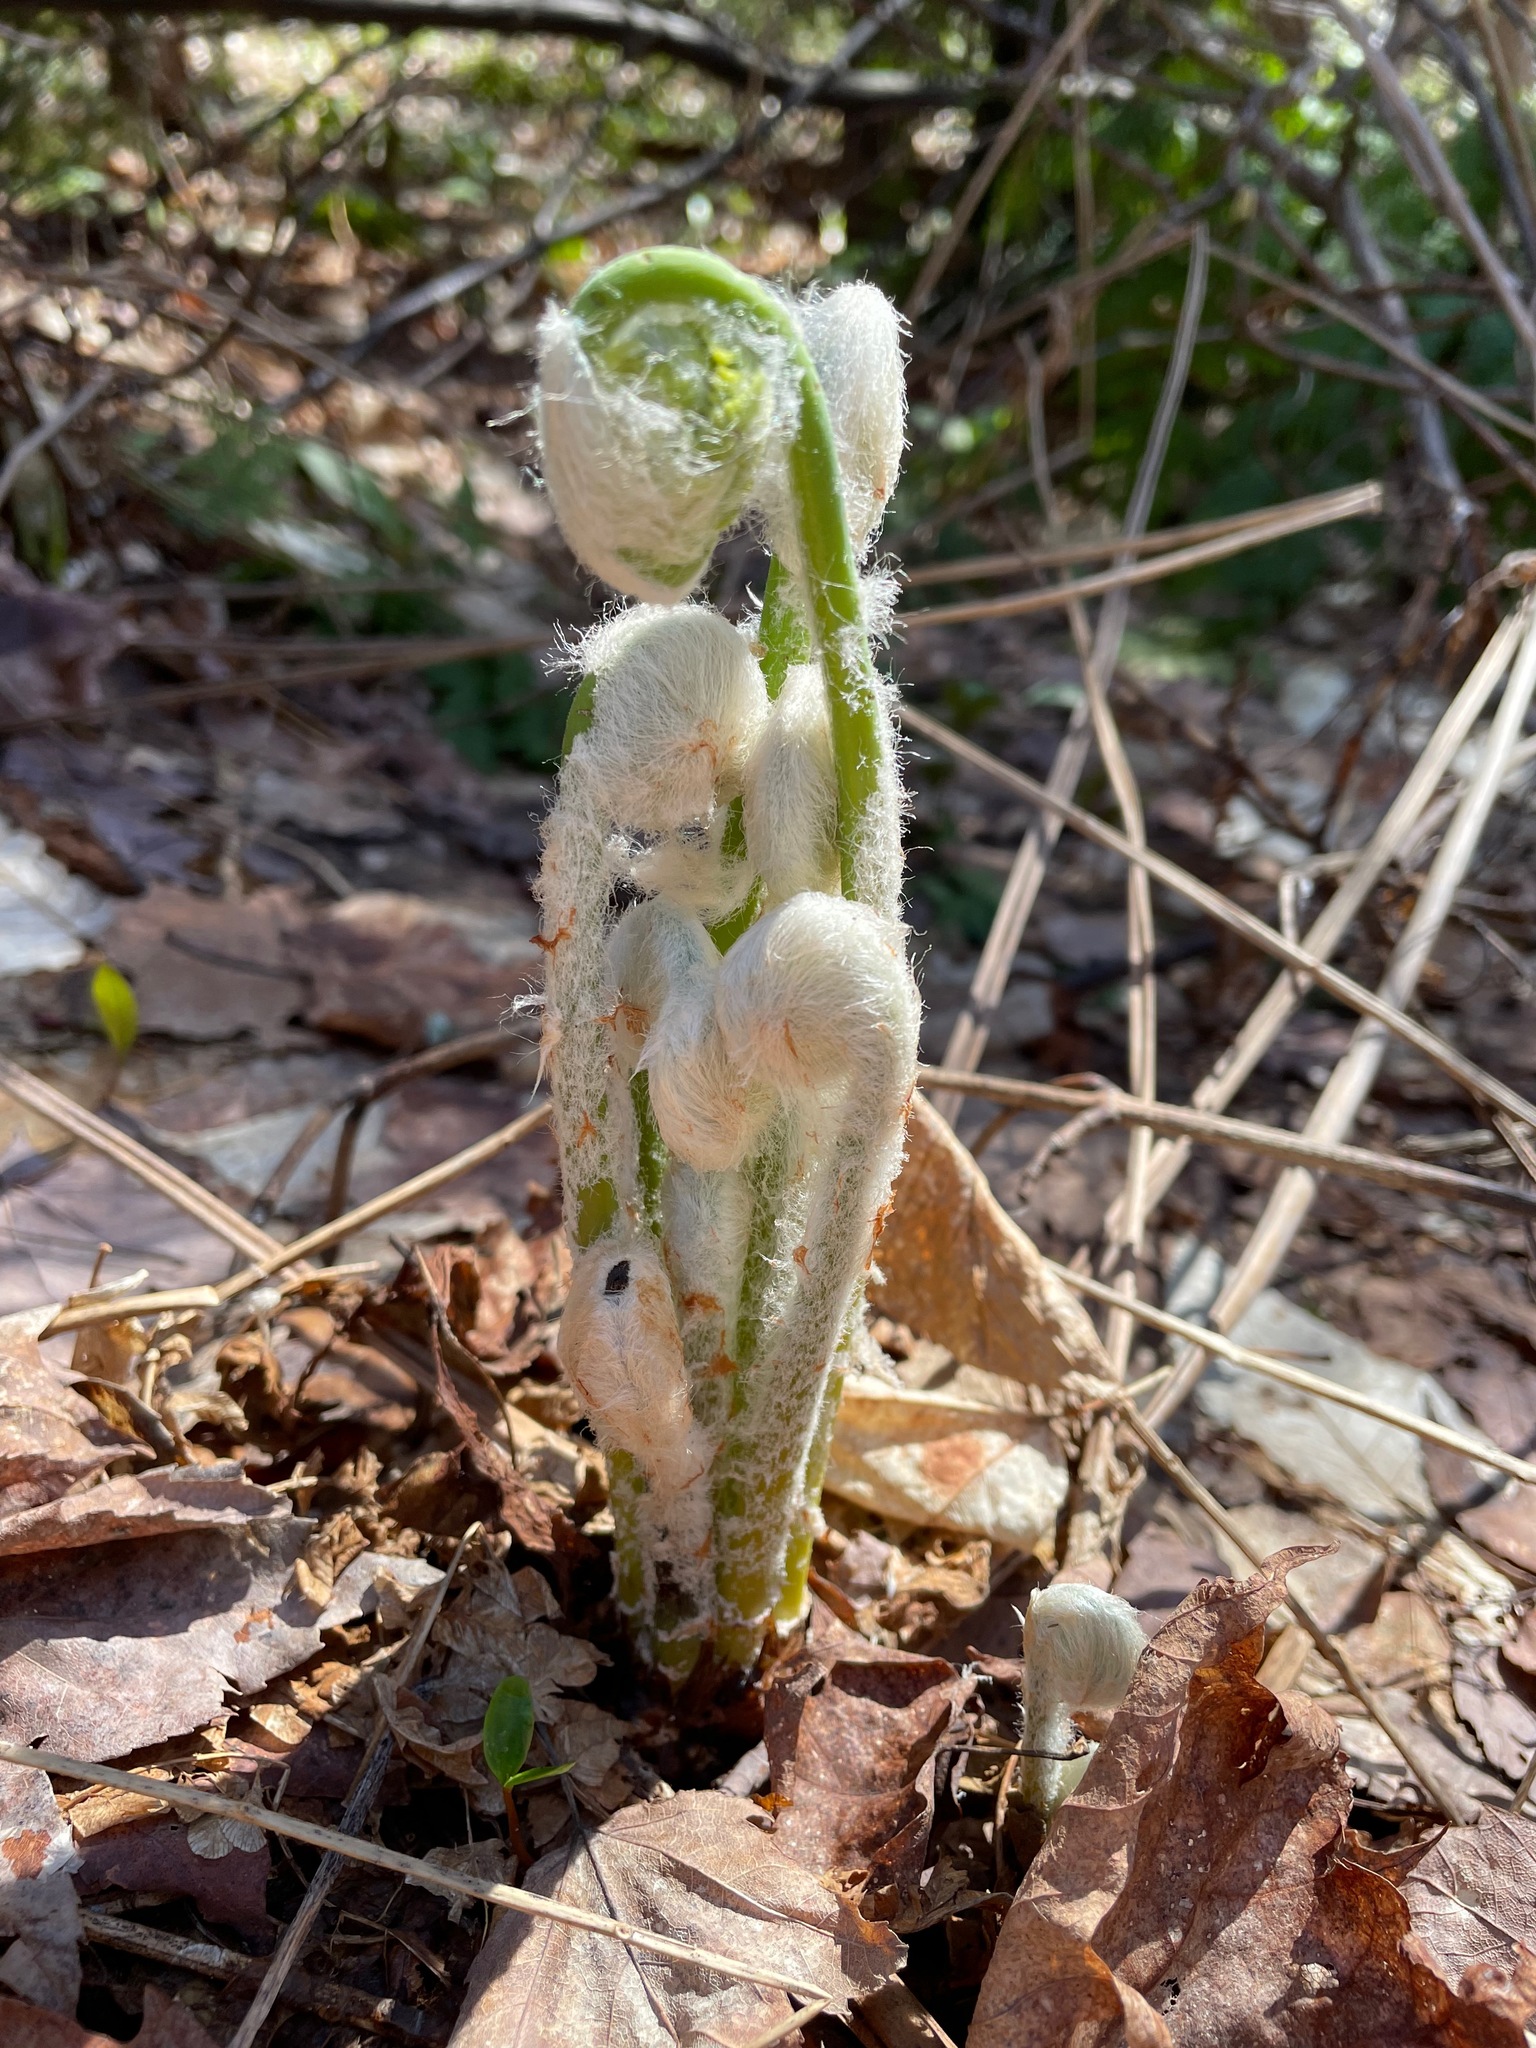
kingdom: Plantae
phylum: Tracheophyta
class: Polypodiopsida
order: Osmundales
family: Osmundaceae
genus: Claytosmunda
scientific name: Claytosmunda claytoniana
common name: Clayton's fern
